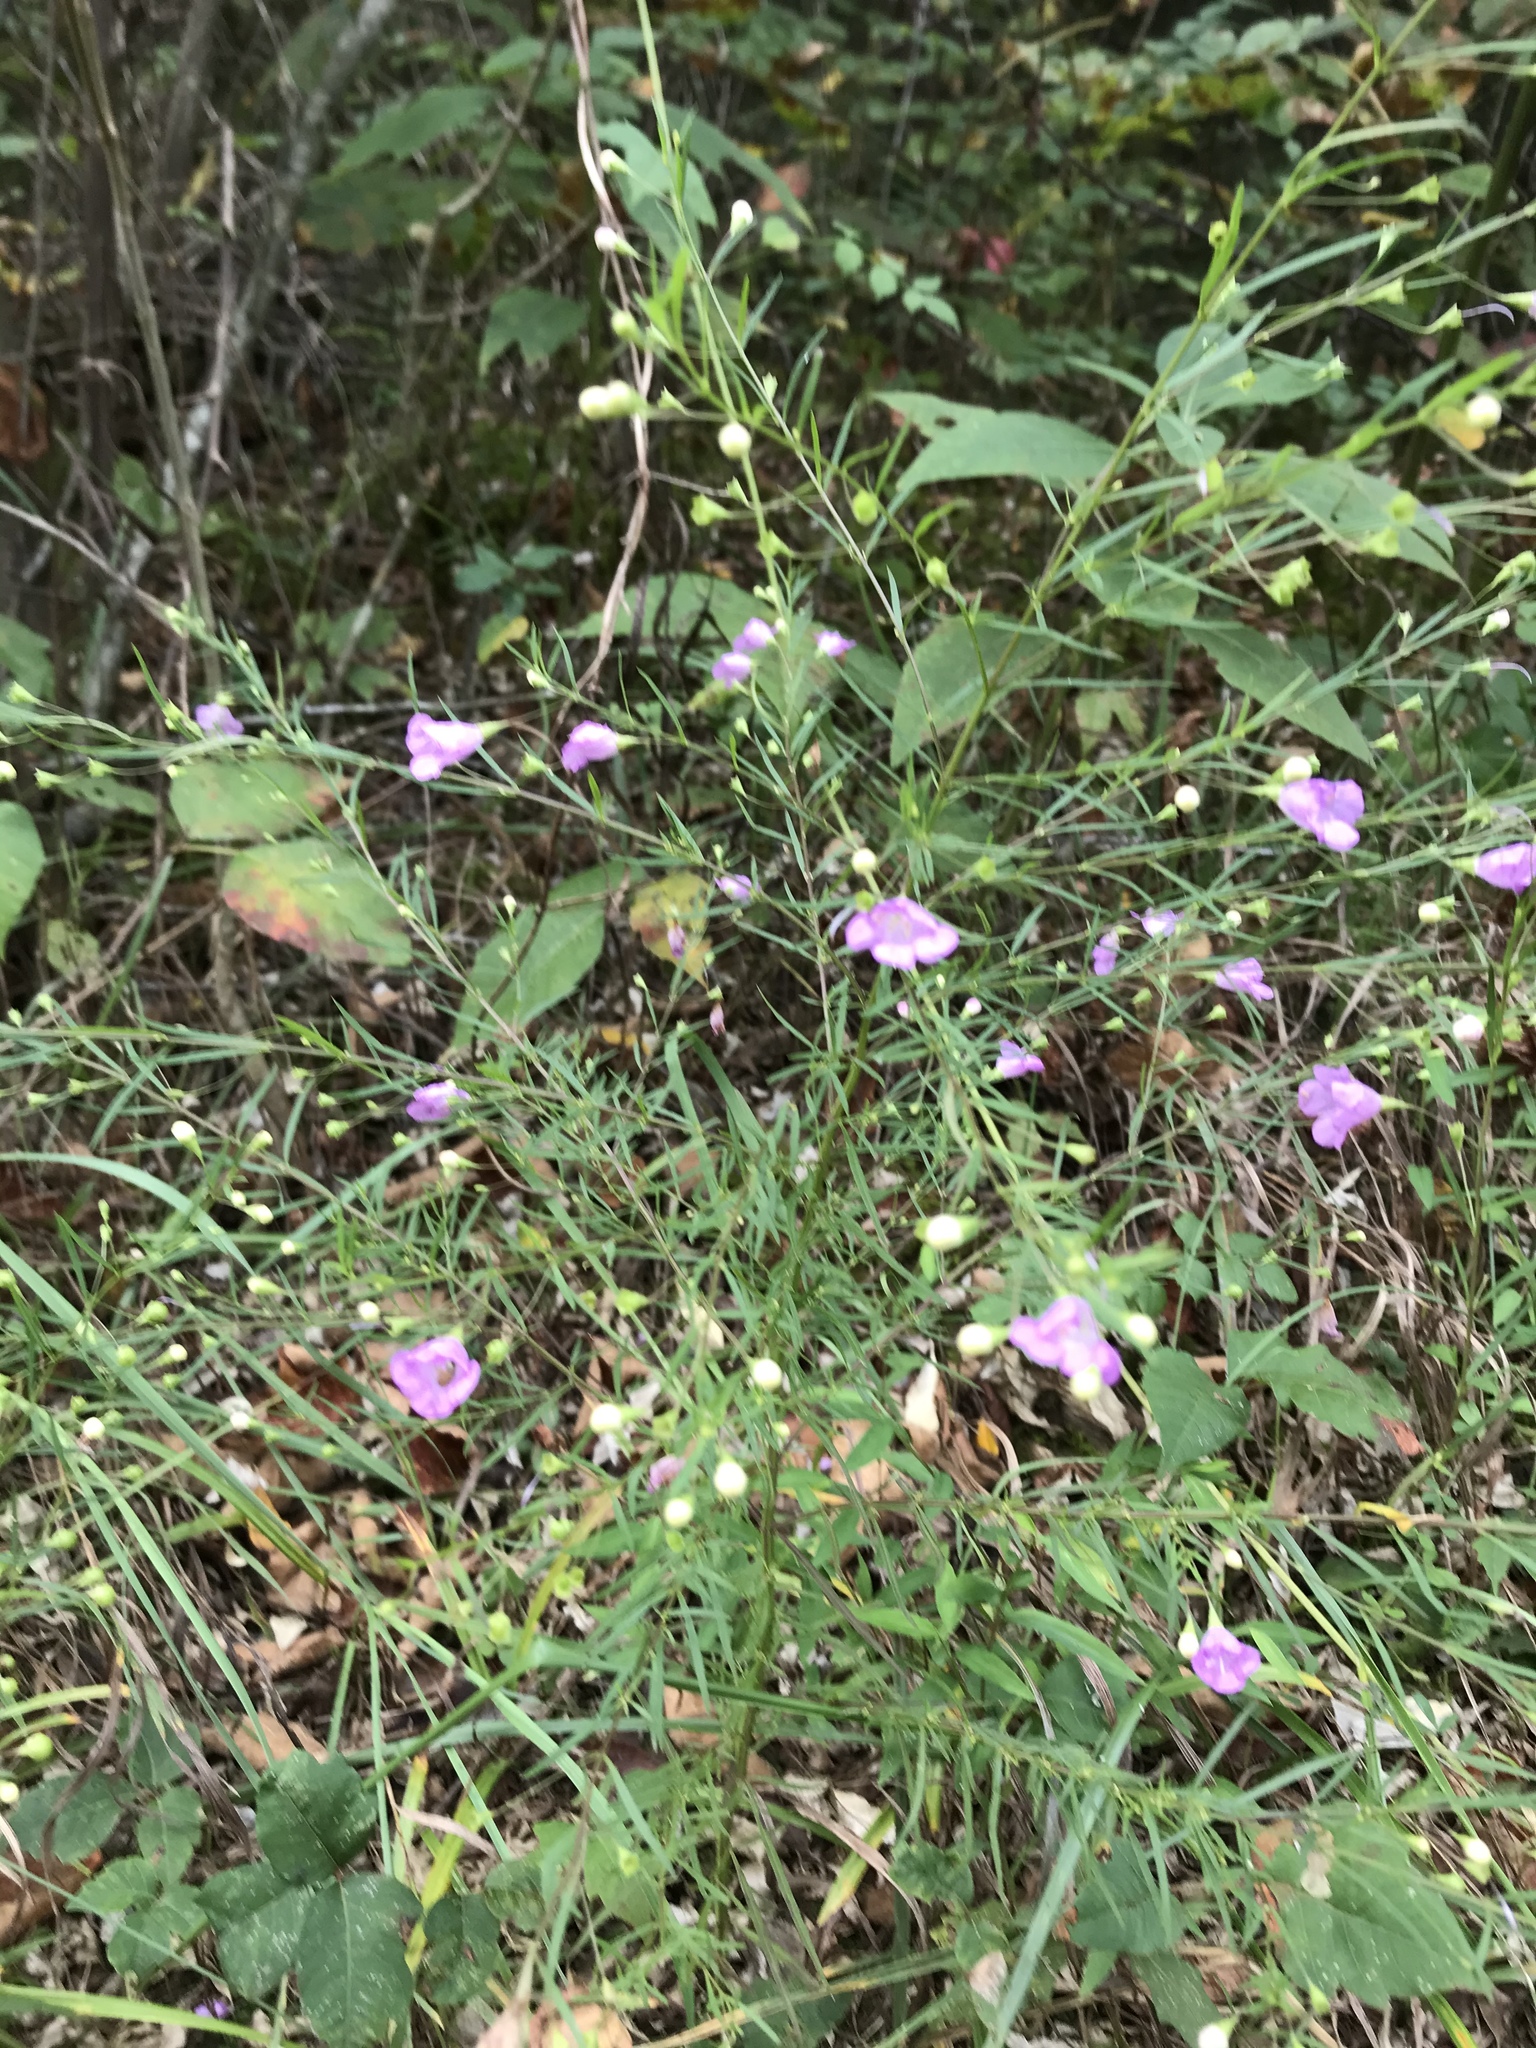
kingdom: Plantae
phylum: Tracheophyta
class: Magnoliopsida
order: Lamiales
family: Orobanchaceae
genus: Agalinis
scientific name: Agalinis tenuifolia
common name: Slender agalinis
